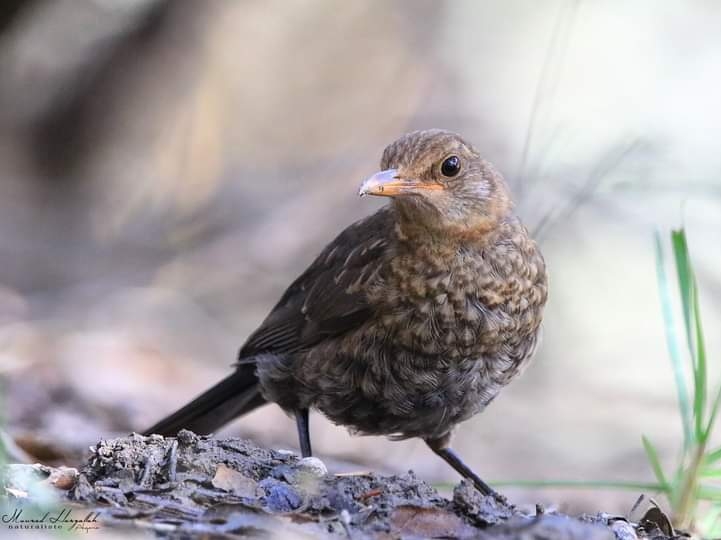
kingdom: Animalia
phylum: Chordata
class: Aves
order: Passeriformes
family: Turdidae
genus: Turdus
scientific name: Turdus merula
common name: Common blackbird
